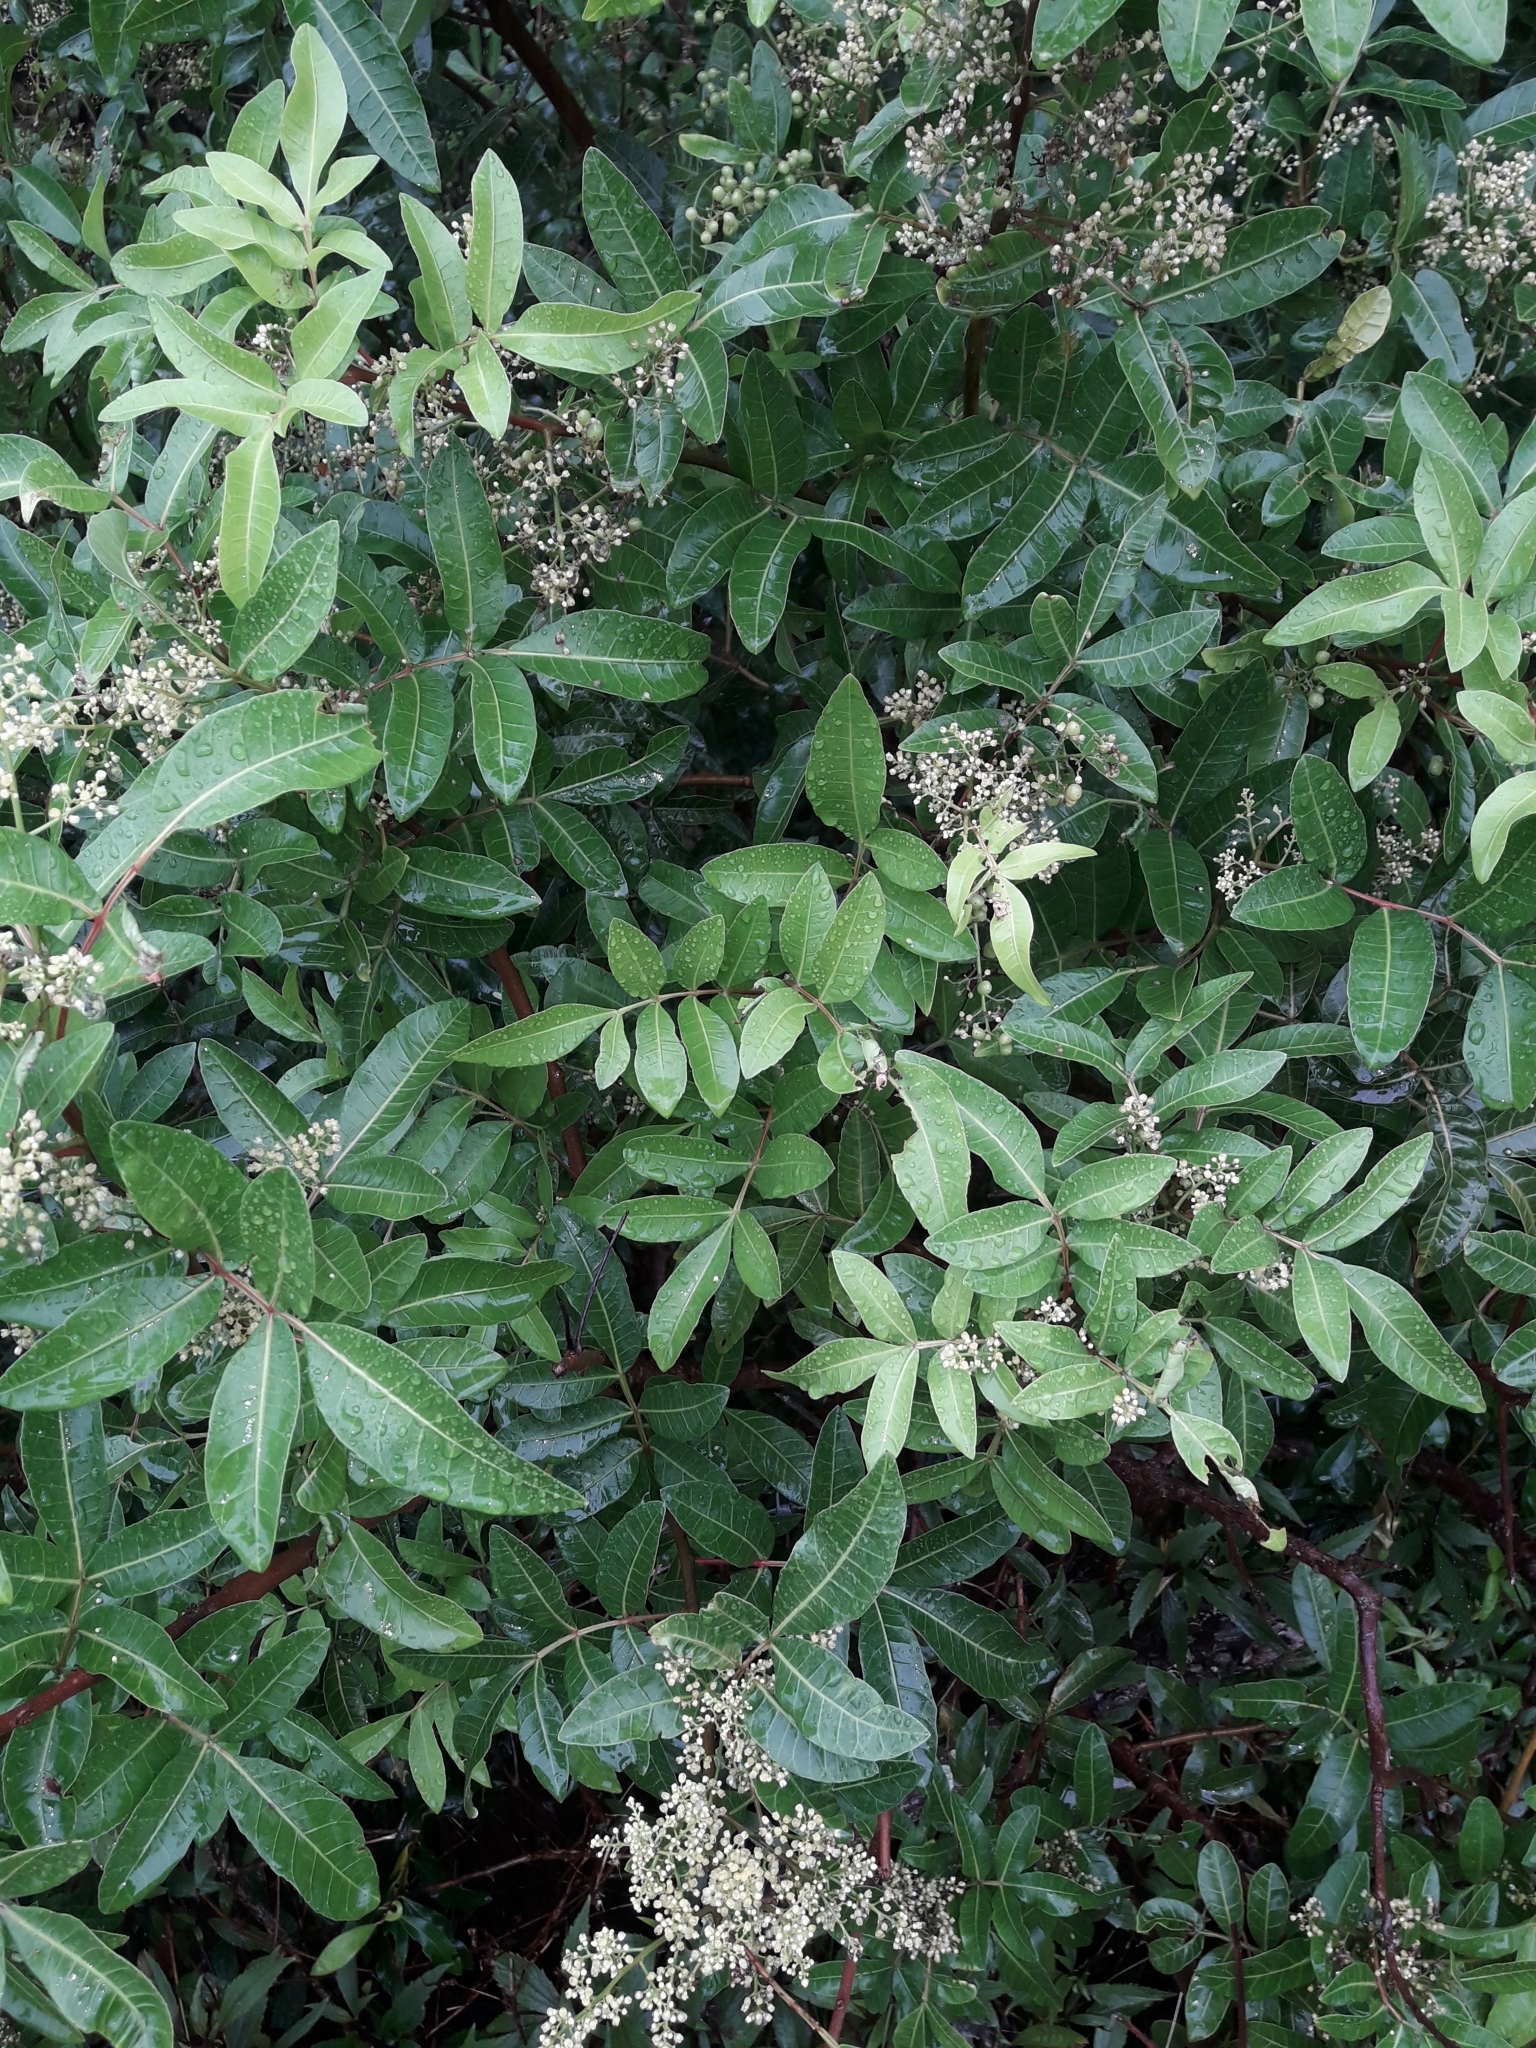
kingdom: Plantae
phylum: Tracheophyta
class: Magnoliopsida
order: Sapindales
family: Anacardiaceae
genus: Schinus
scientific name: Schinus terebinthifolia
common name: Brazilian peppertree
